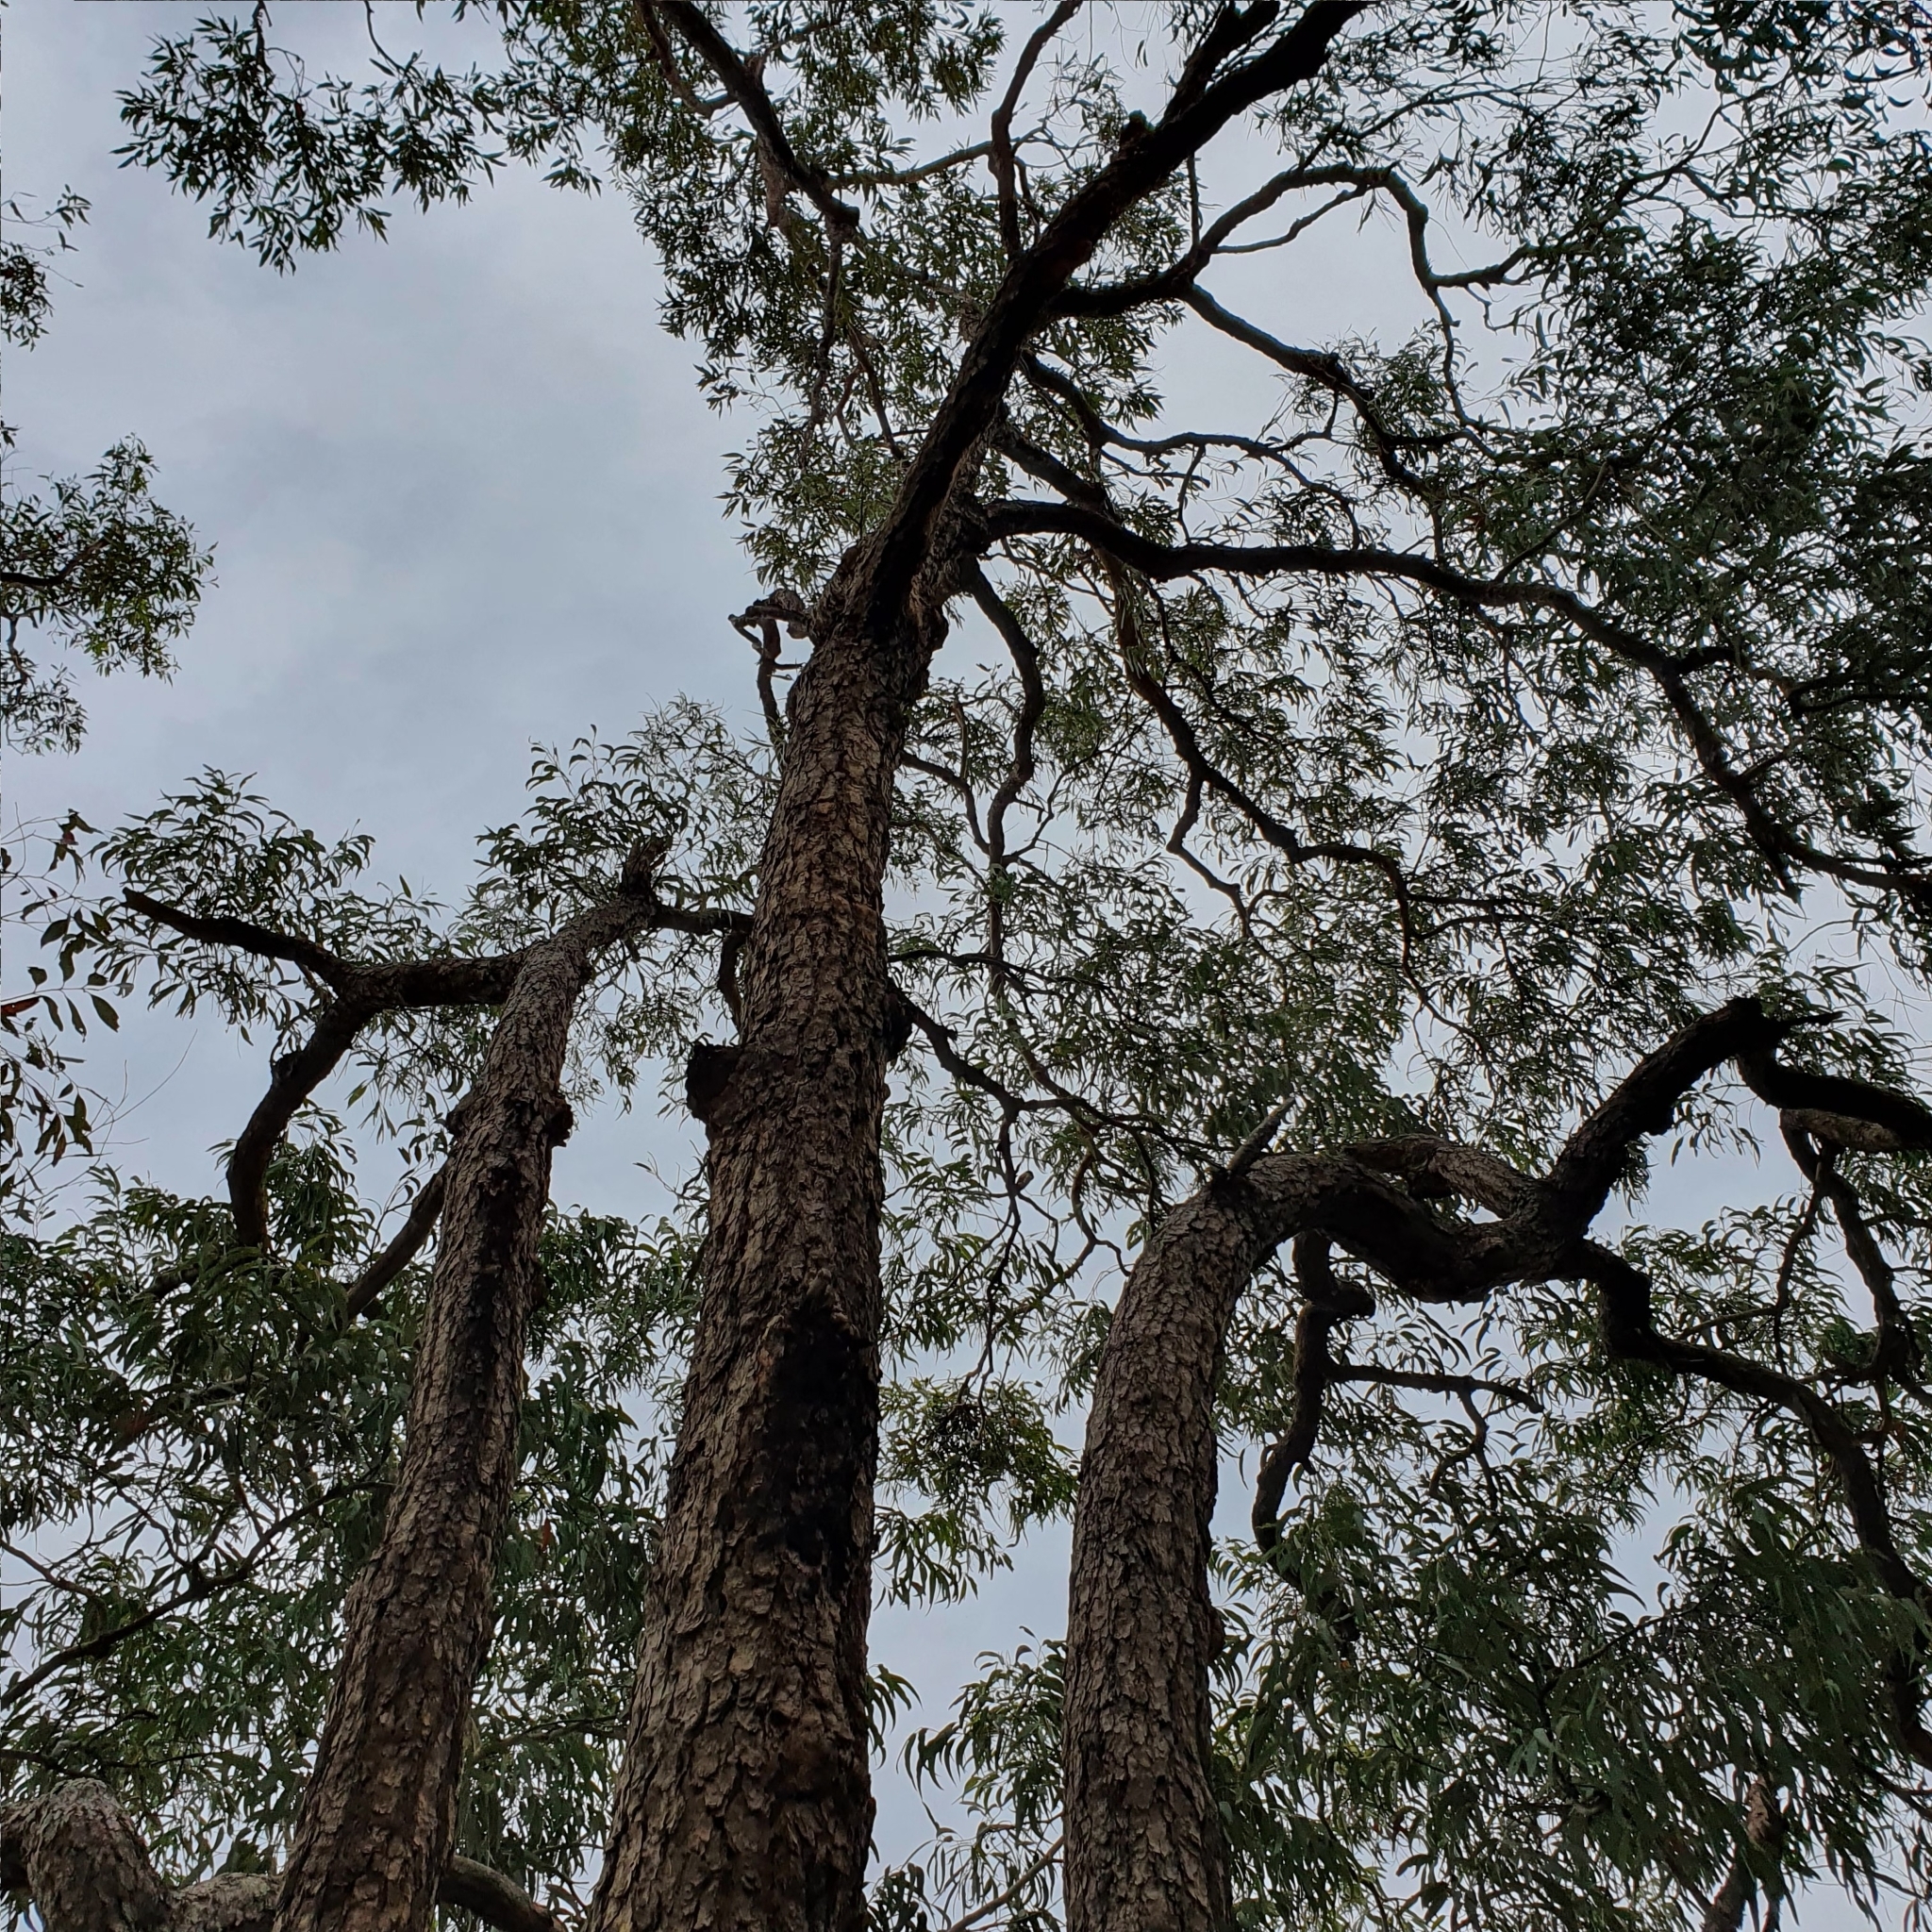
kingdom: Plantae
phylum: Tracheophyta
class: Magnoliopsida
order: Myrtales
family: Myrtaceae
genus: Corymbia
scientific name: Corymbia eximia
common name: Yellow bloodwood
